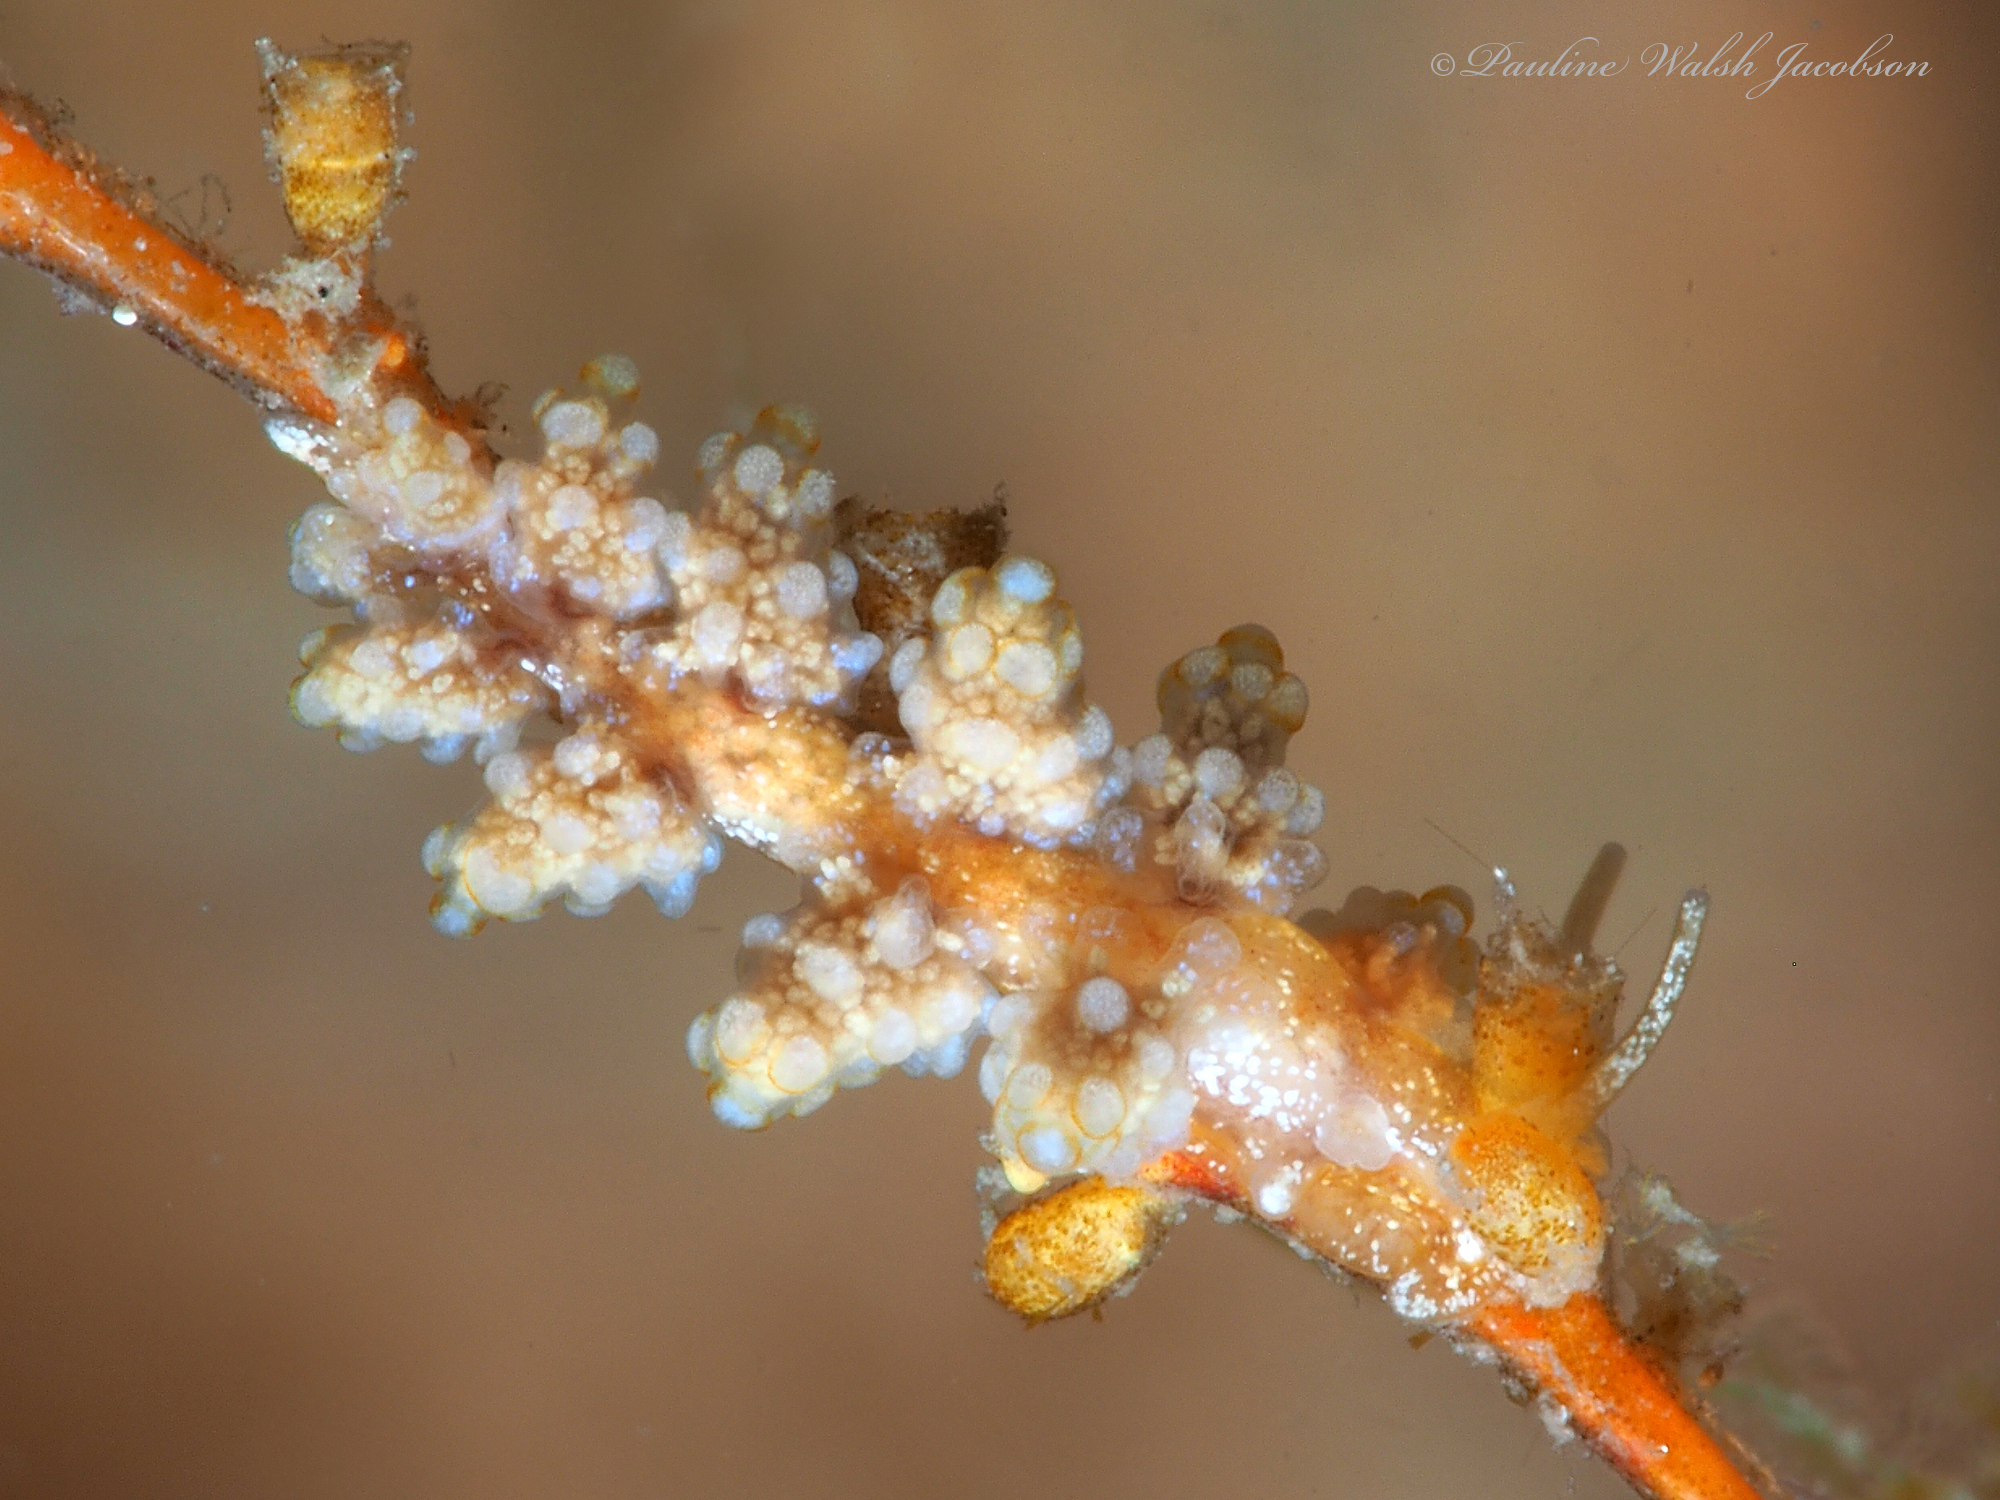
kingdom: Animalia
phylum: Mollusca
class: Gastropoda
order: Nudibranchia
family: Dotidae
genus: Doto
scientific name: Doto torrelavega
